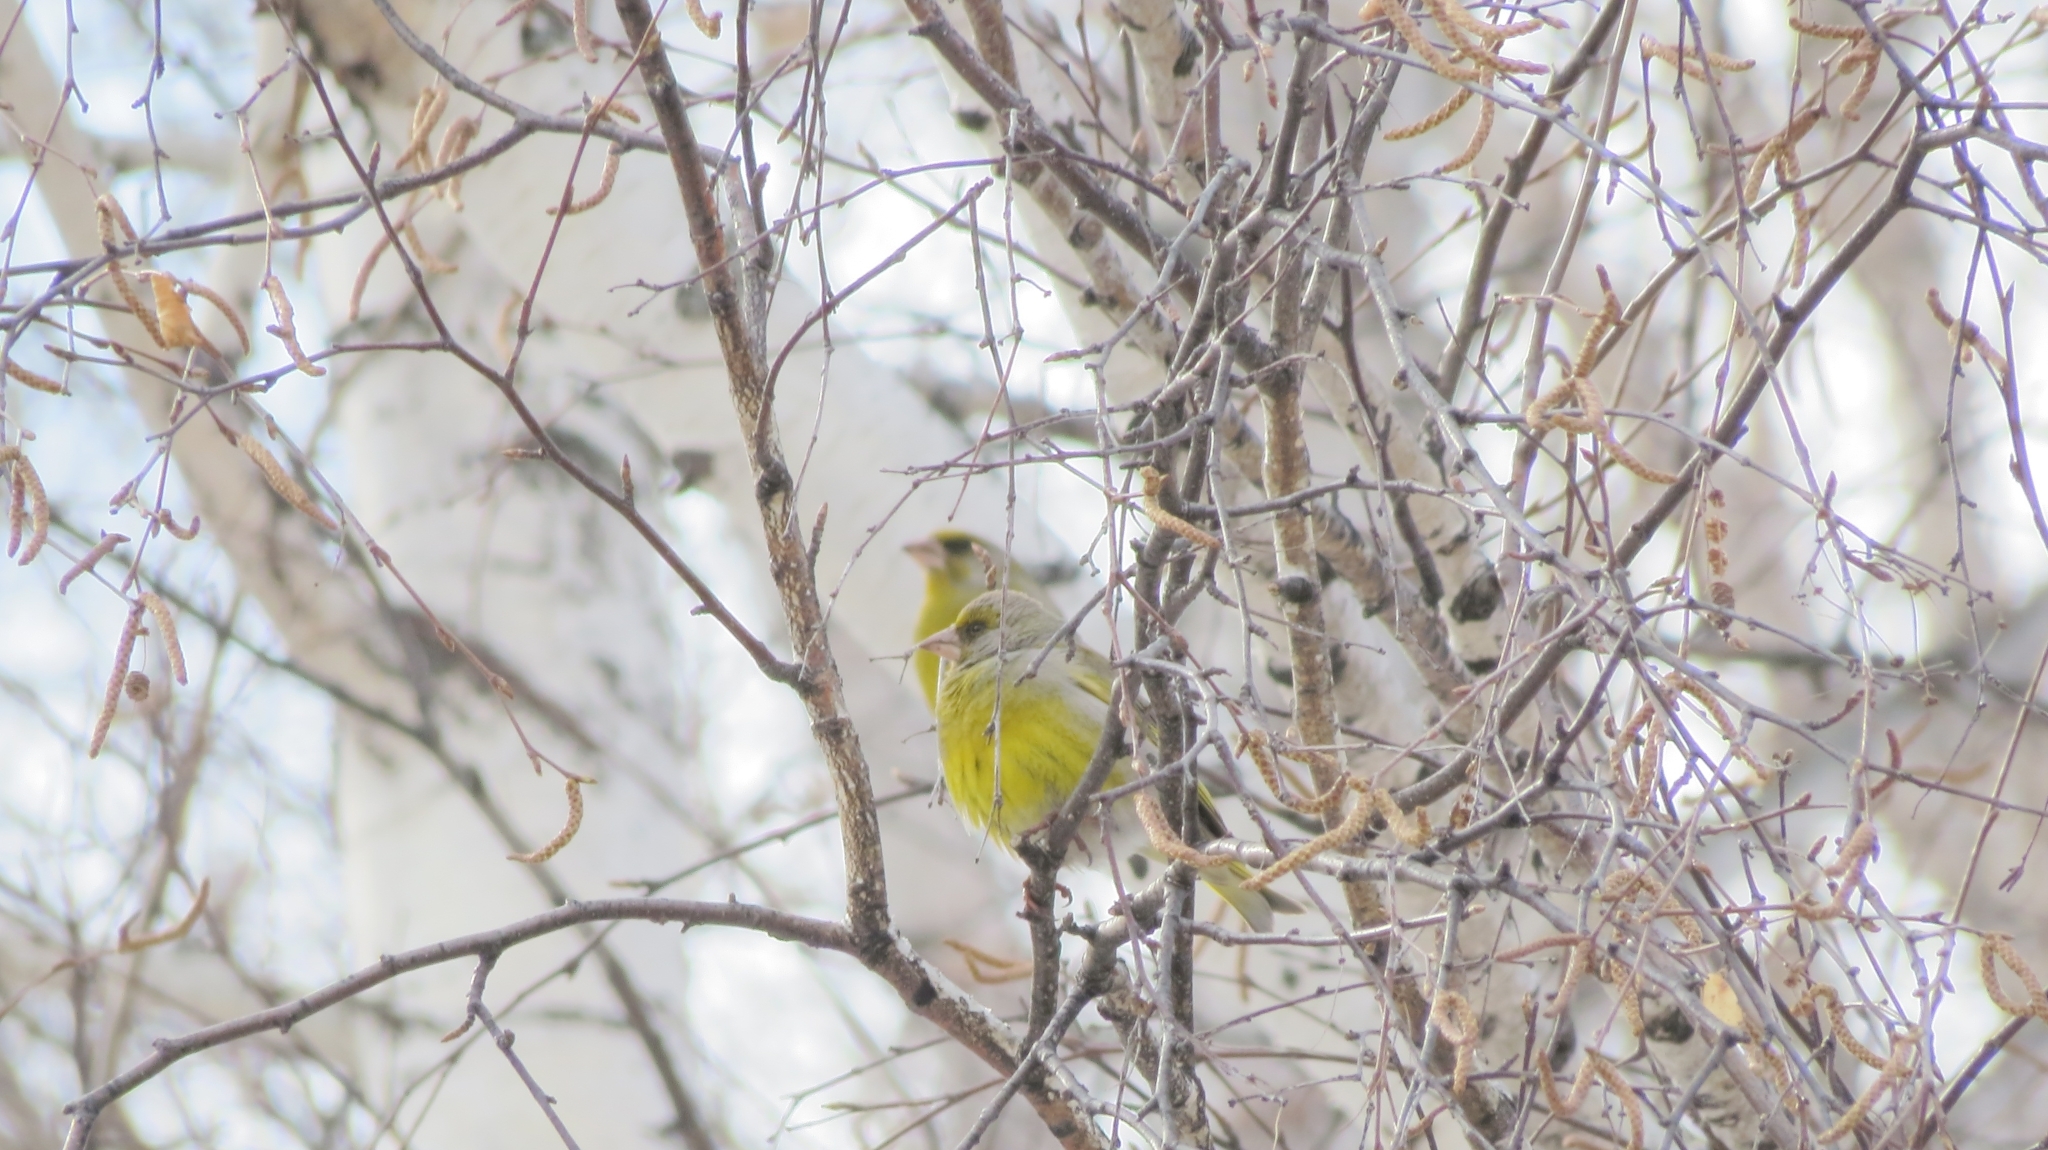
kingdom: Plantae
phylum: Tracheophyta
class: Liliopsida
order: Poales
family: Poaceae
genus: Chloris
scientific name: Chloris chloris
